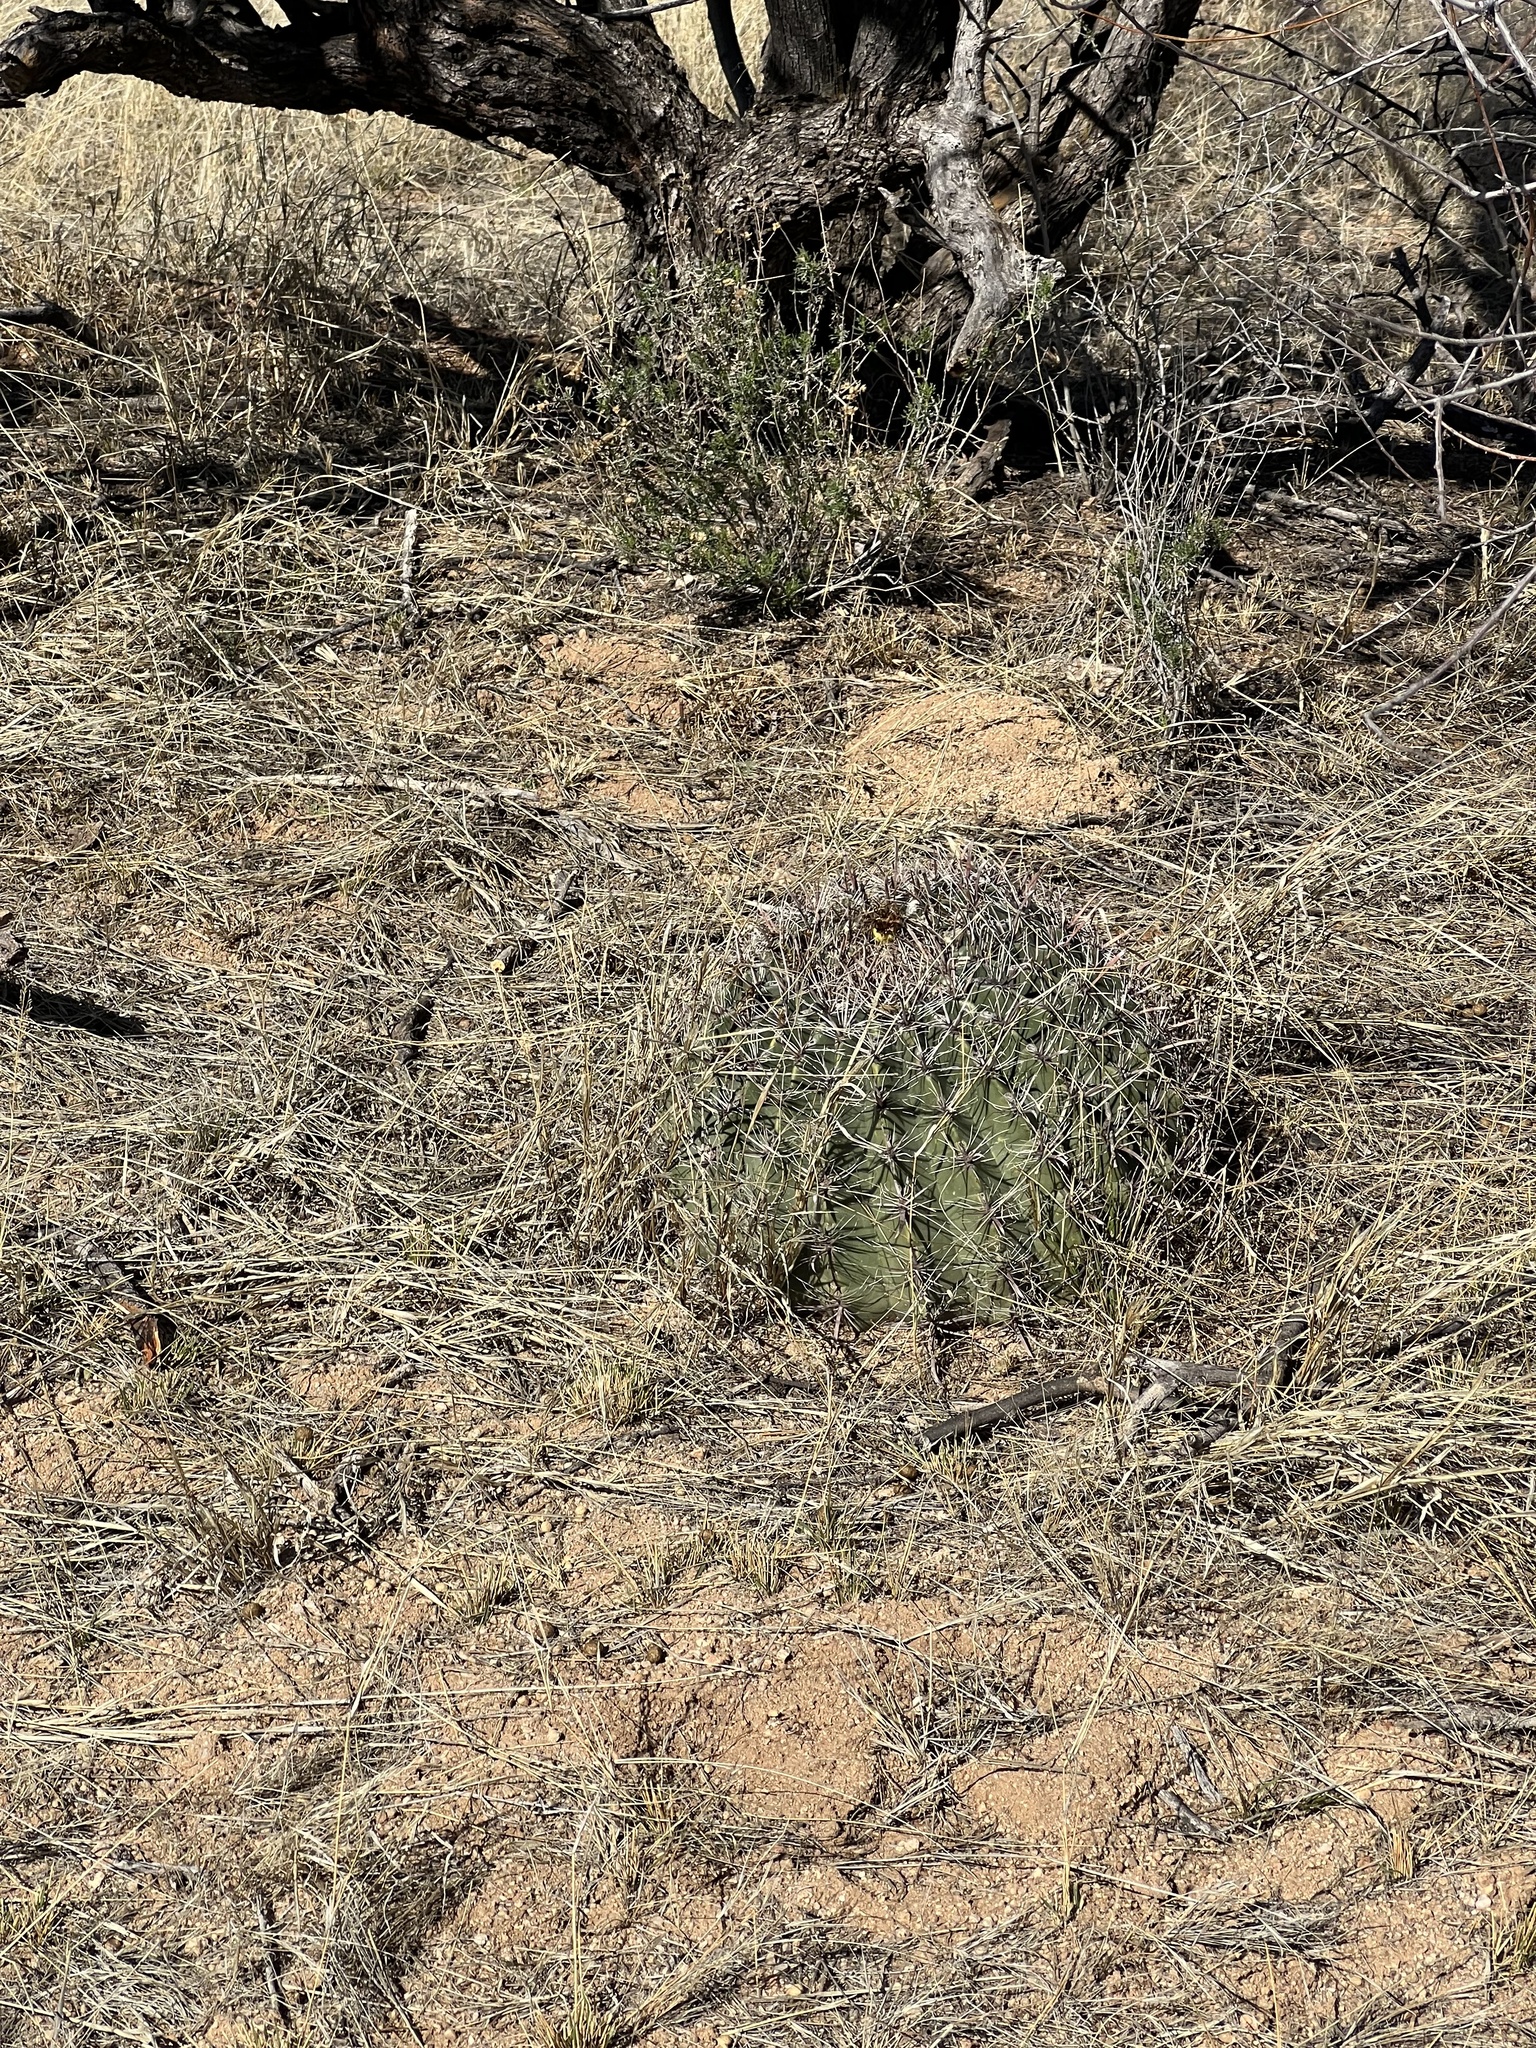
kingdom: Plantae
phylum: Tracheophyta
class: Magnoliopsida
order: Caryophyllales
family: Cactaceae
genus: Ferocactus
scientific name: Ferocactus wislizeni
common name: Candy barrel cactus
